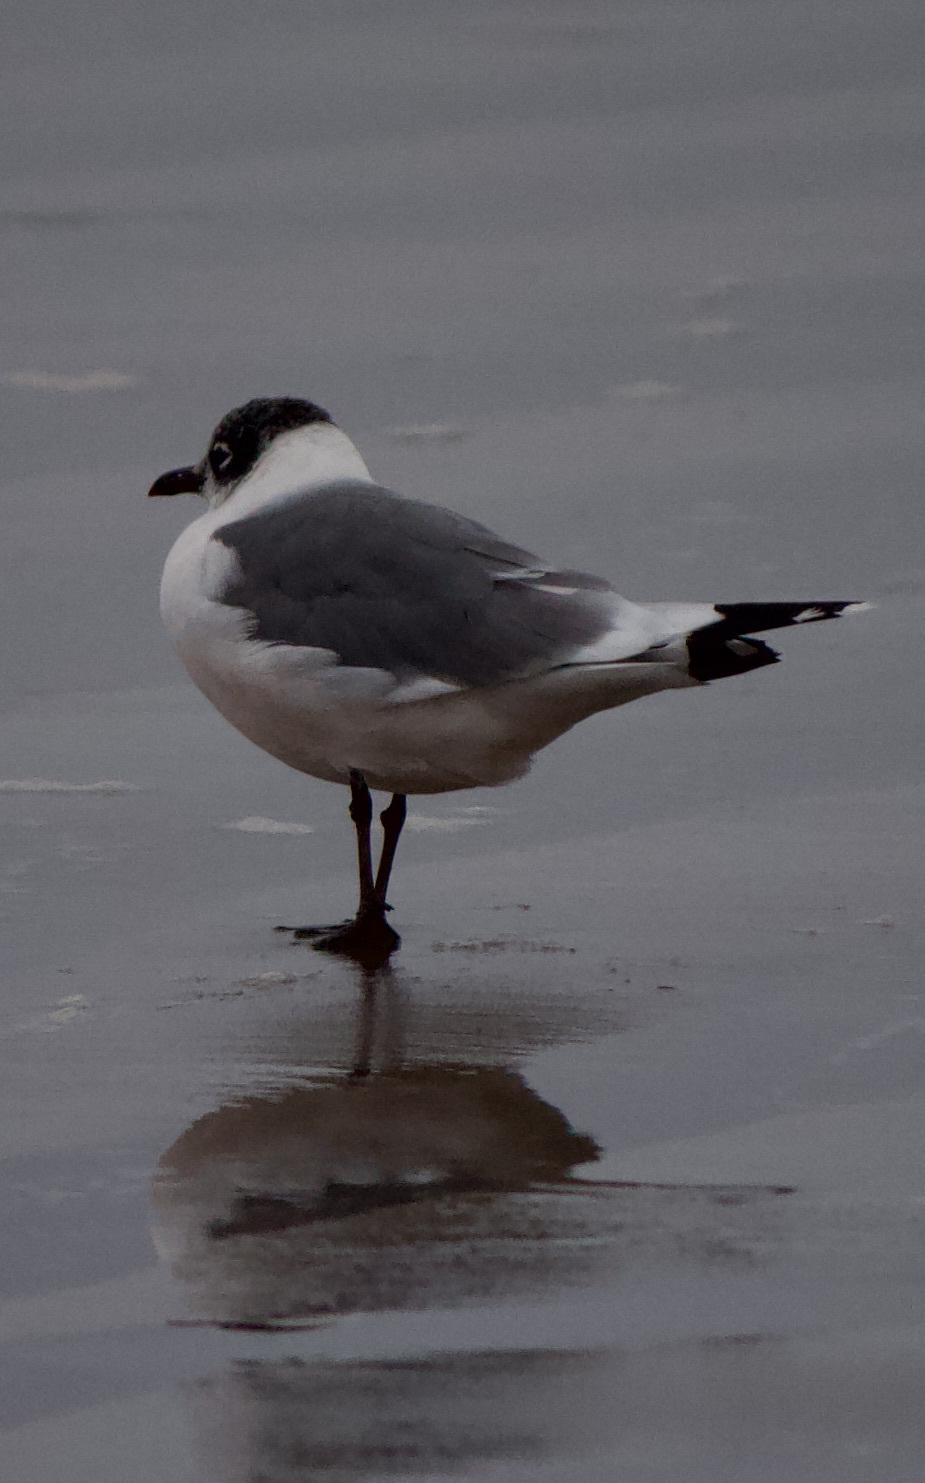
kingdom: Animalia
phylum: Chordata
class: Aves
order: Charadriiformes
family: Laridae
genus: Leucophaeus
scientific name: Leucophaeus pipixcan
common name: Franklin's gull
